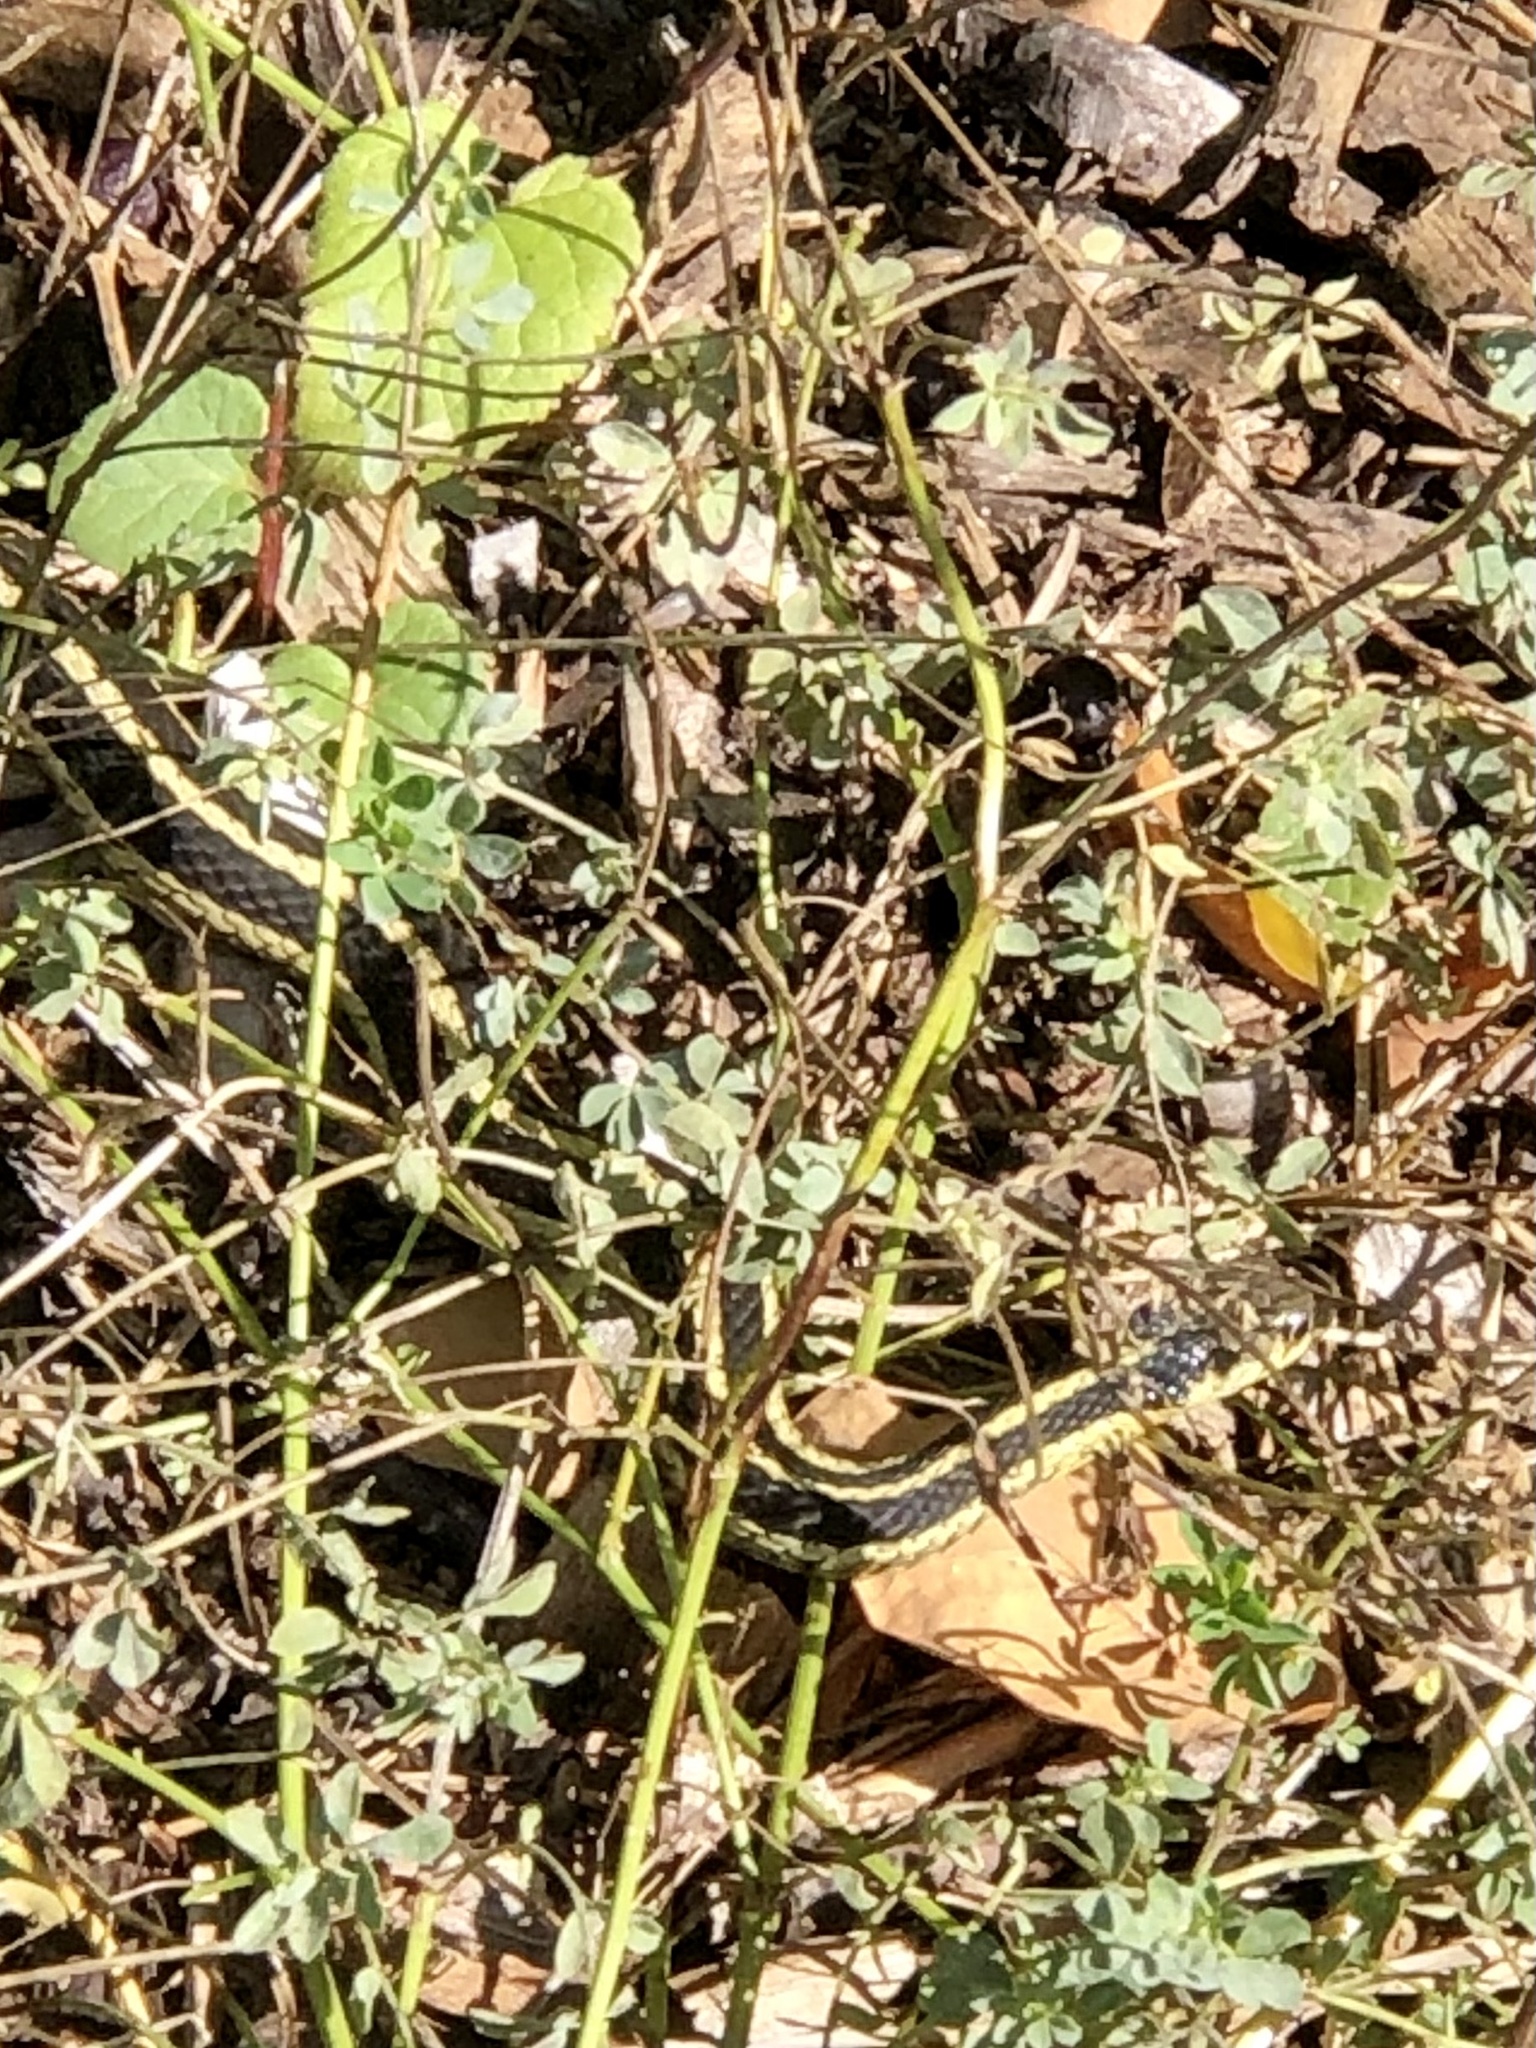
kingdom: Animalia
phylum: Chordata
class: Squamata
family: Colubridae
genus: Thamnophis
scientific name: Thamnophis sirtalis
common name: Common garter snake
